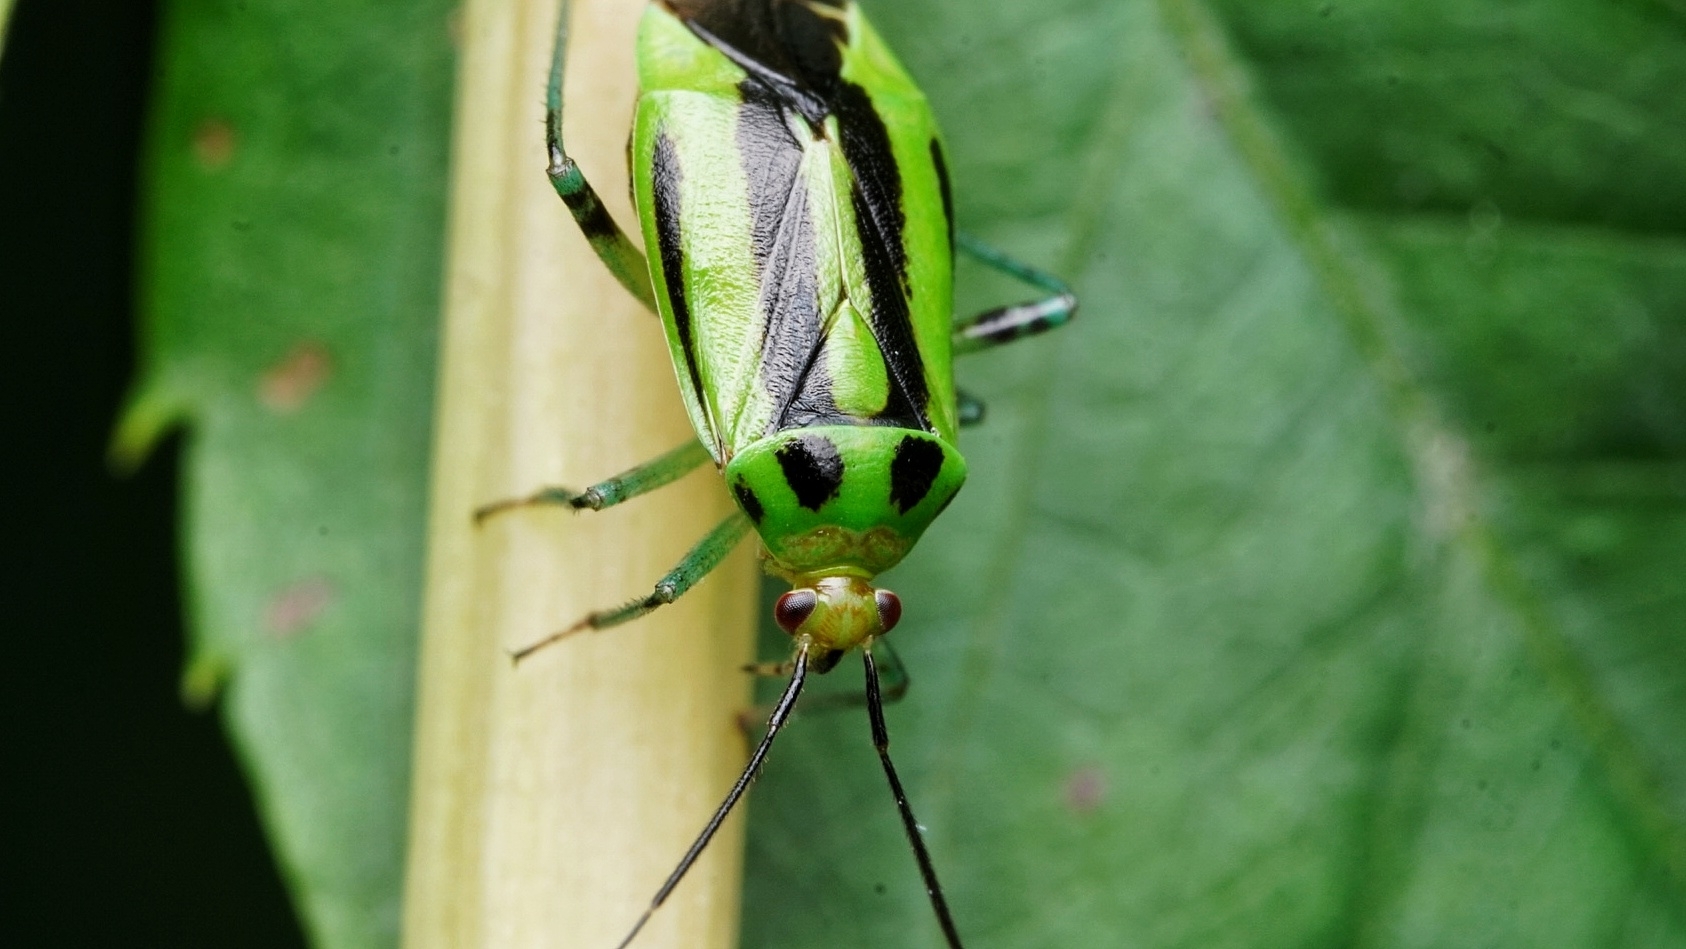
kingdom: Animalia
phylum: Arthropoda
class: Insecta
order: Hemiptera
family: Miridae
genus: Poecilocapsus
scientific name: Poecilocapsus lineatus
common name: Four-lined plant bug
